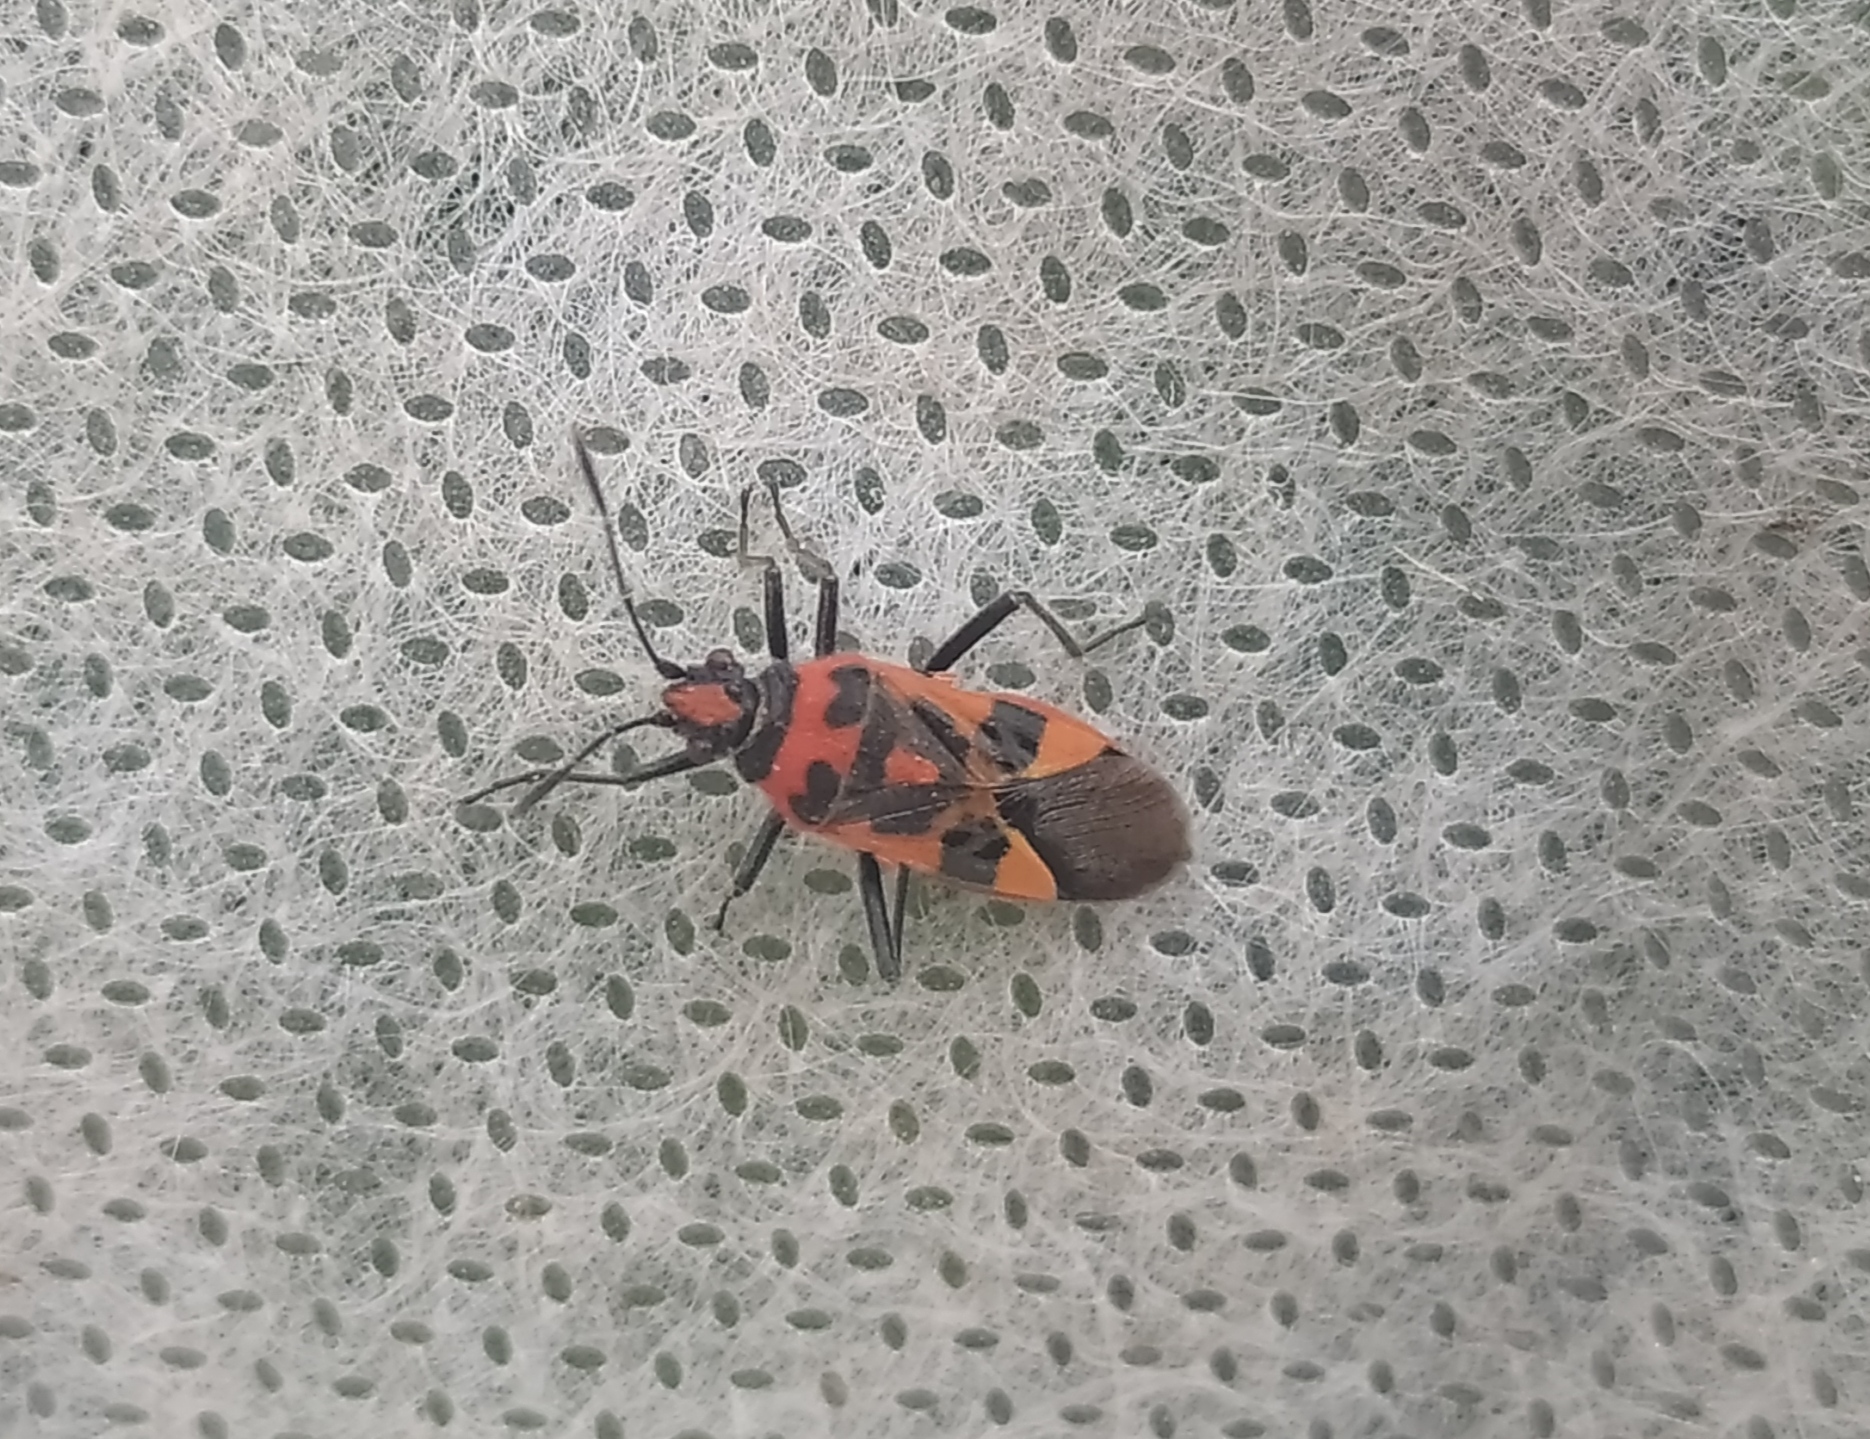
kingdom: Animalia
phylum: Arthropoda
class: Insecta
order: Hemiptera
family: Rhopalidae
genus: Corizus
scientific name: Corizus hyoscyami
